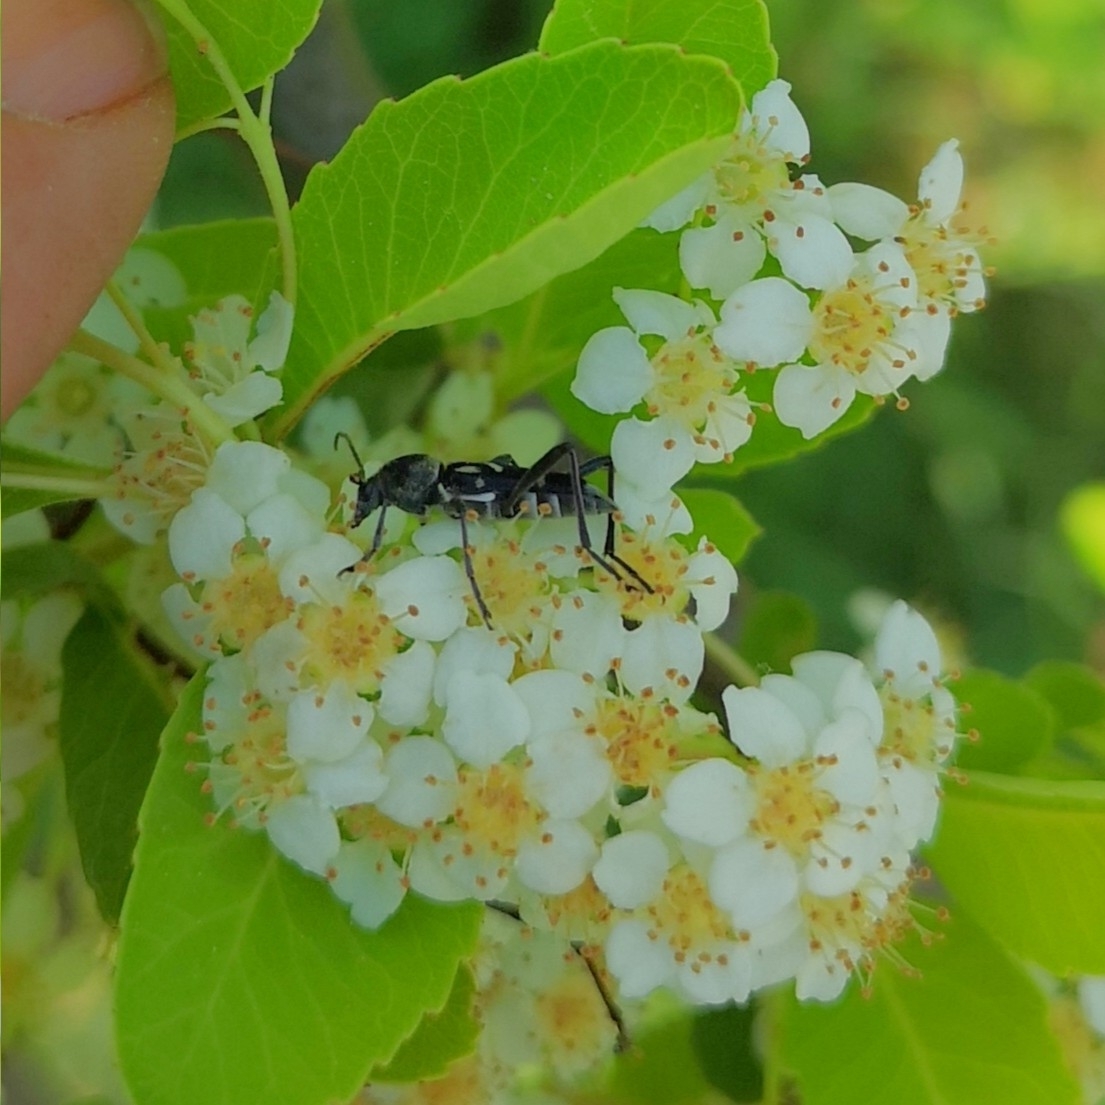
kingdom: Animalia
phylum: Arthropoda
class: Insecta
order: Coleoptera
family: Cerambycidae
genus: Chlorophorus
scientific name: Chlorophorus figuratus
